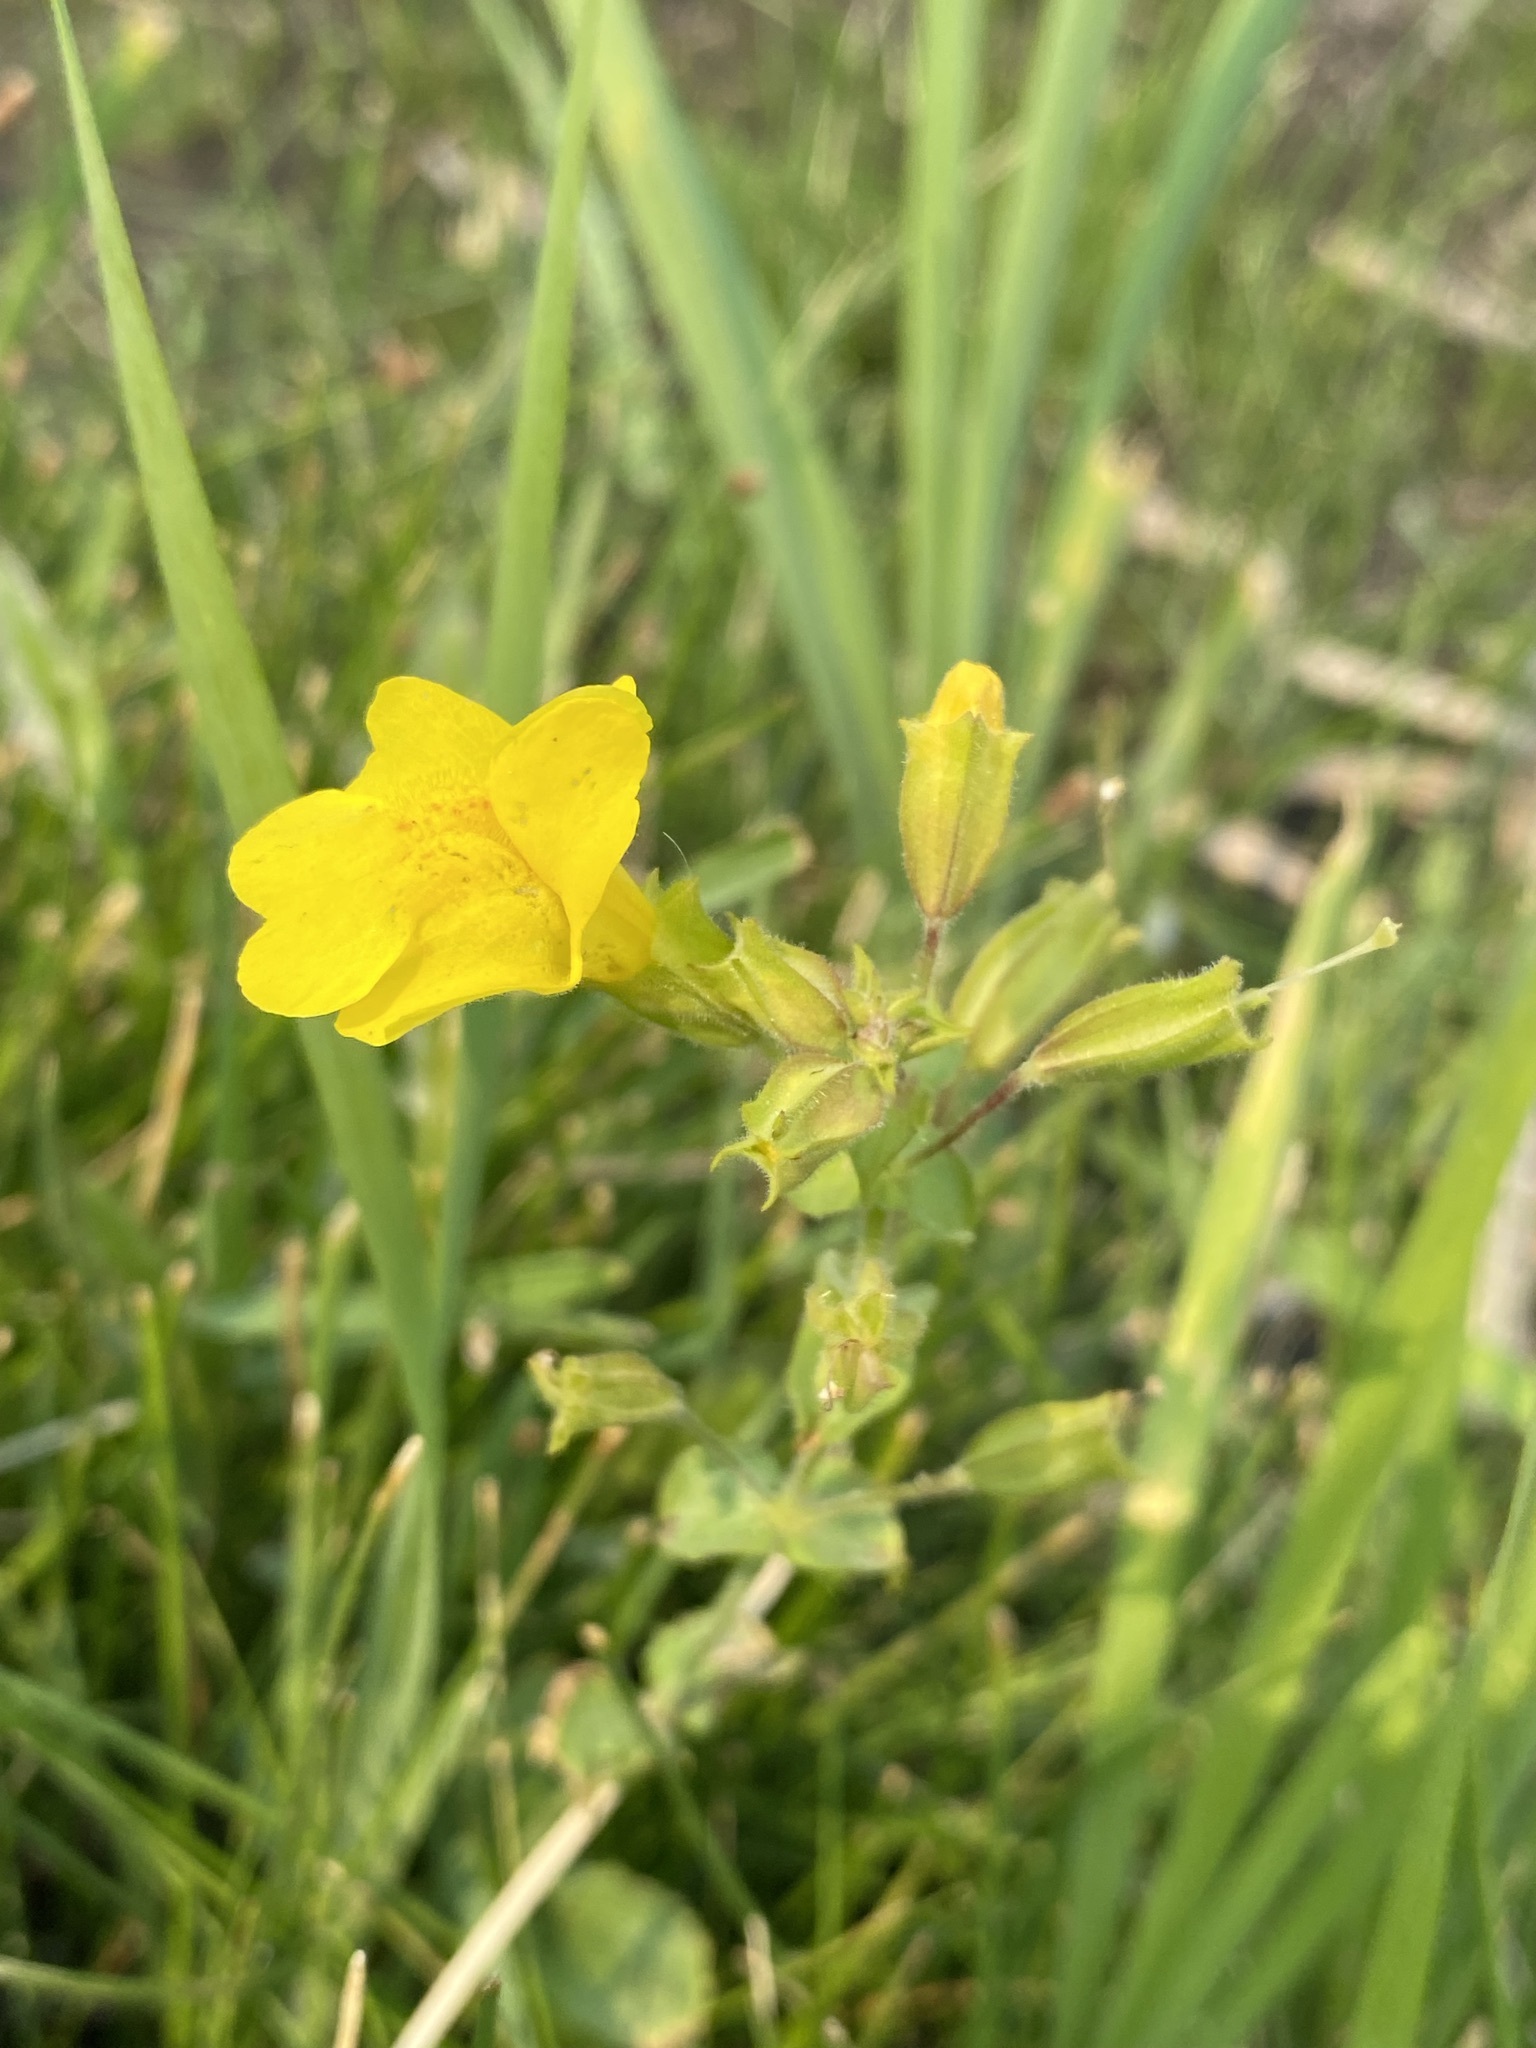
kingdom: Plantae
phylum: Tracheophyta
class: Magnoliopsida
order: Lamiales
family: Phrymaceae
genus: Erythranthe
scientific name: Erythranthe guttata
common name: Monkeyflower
